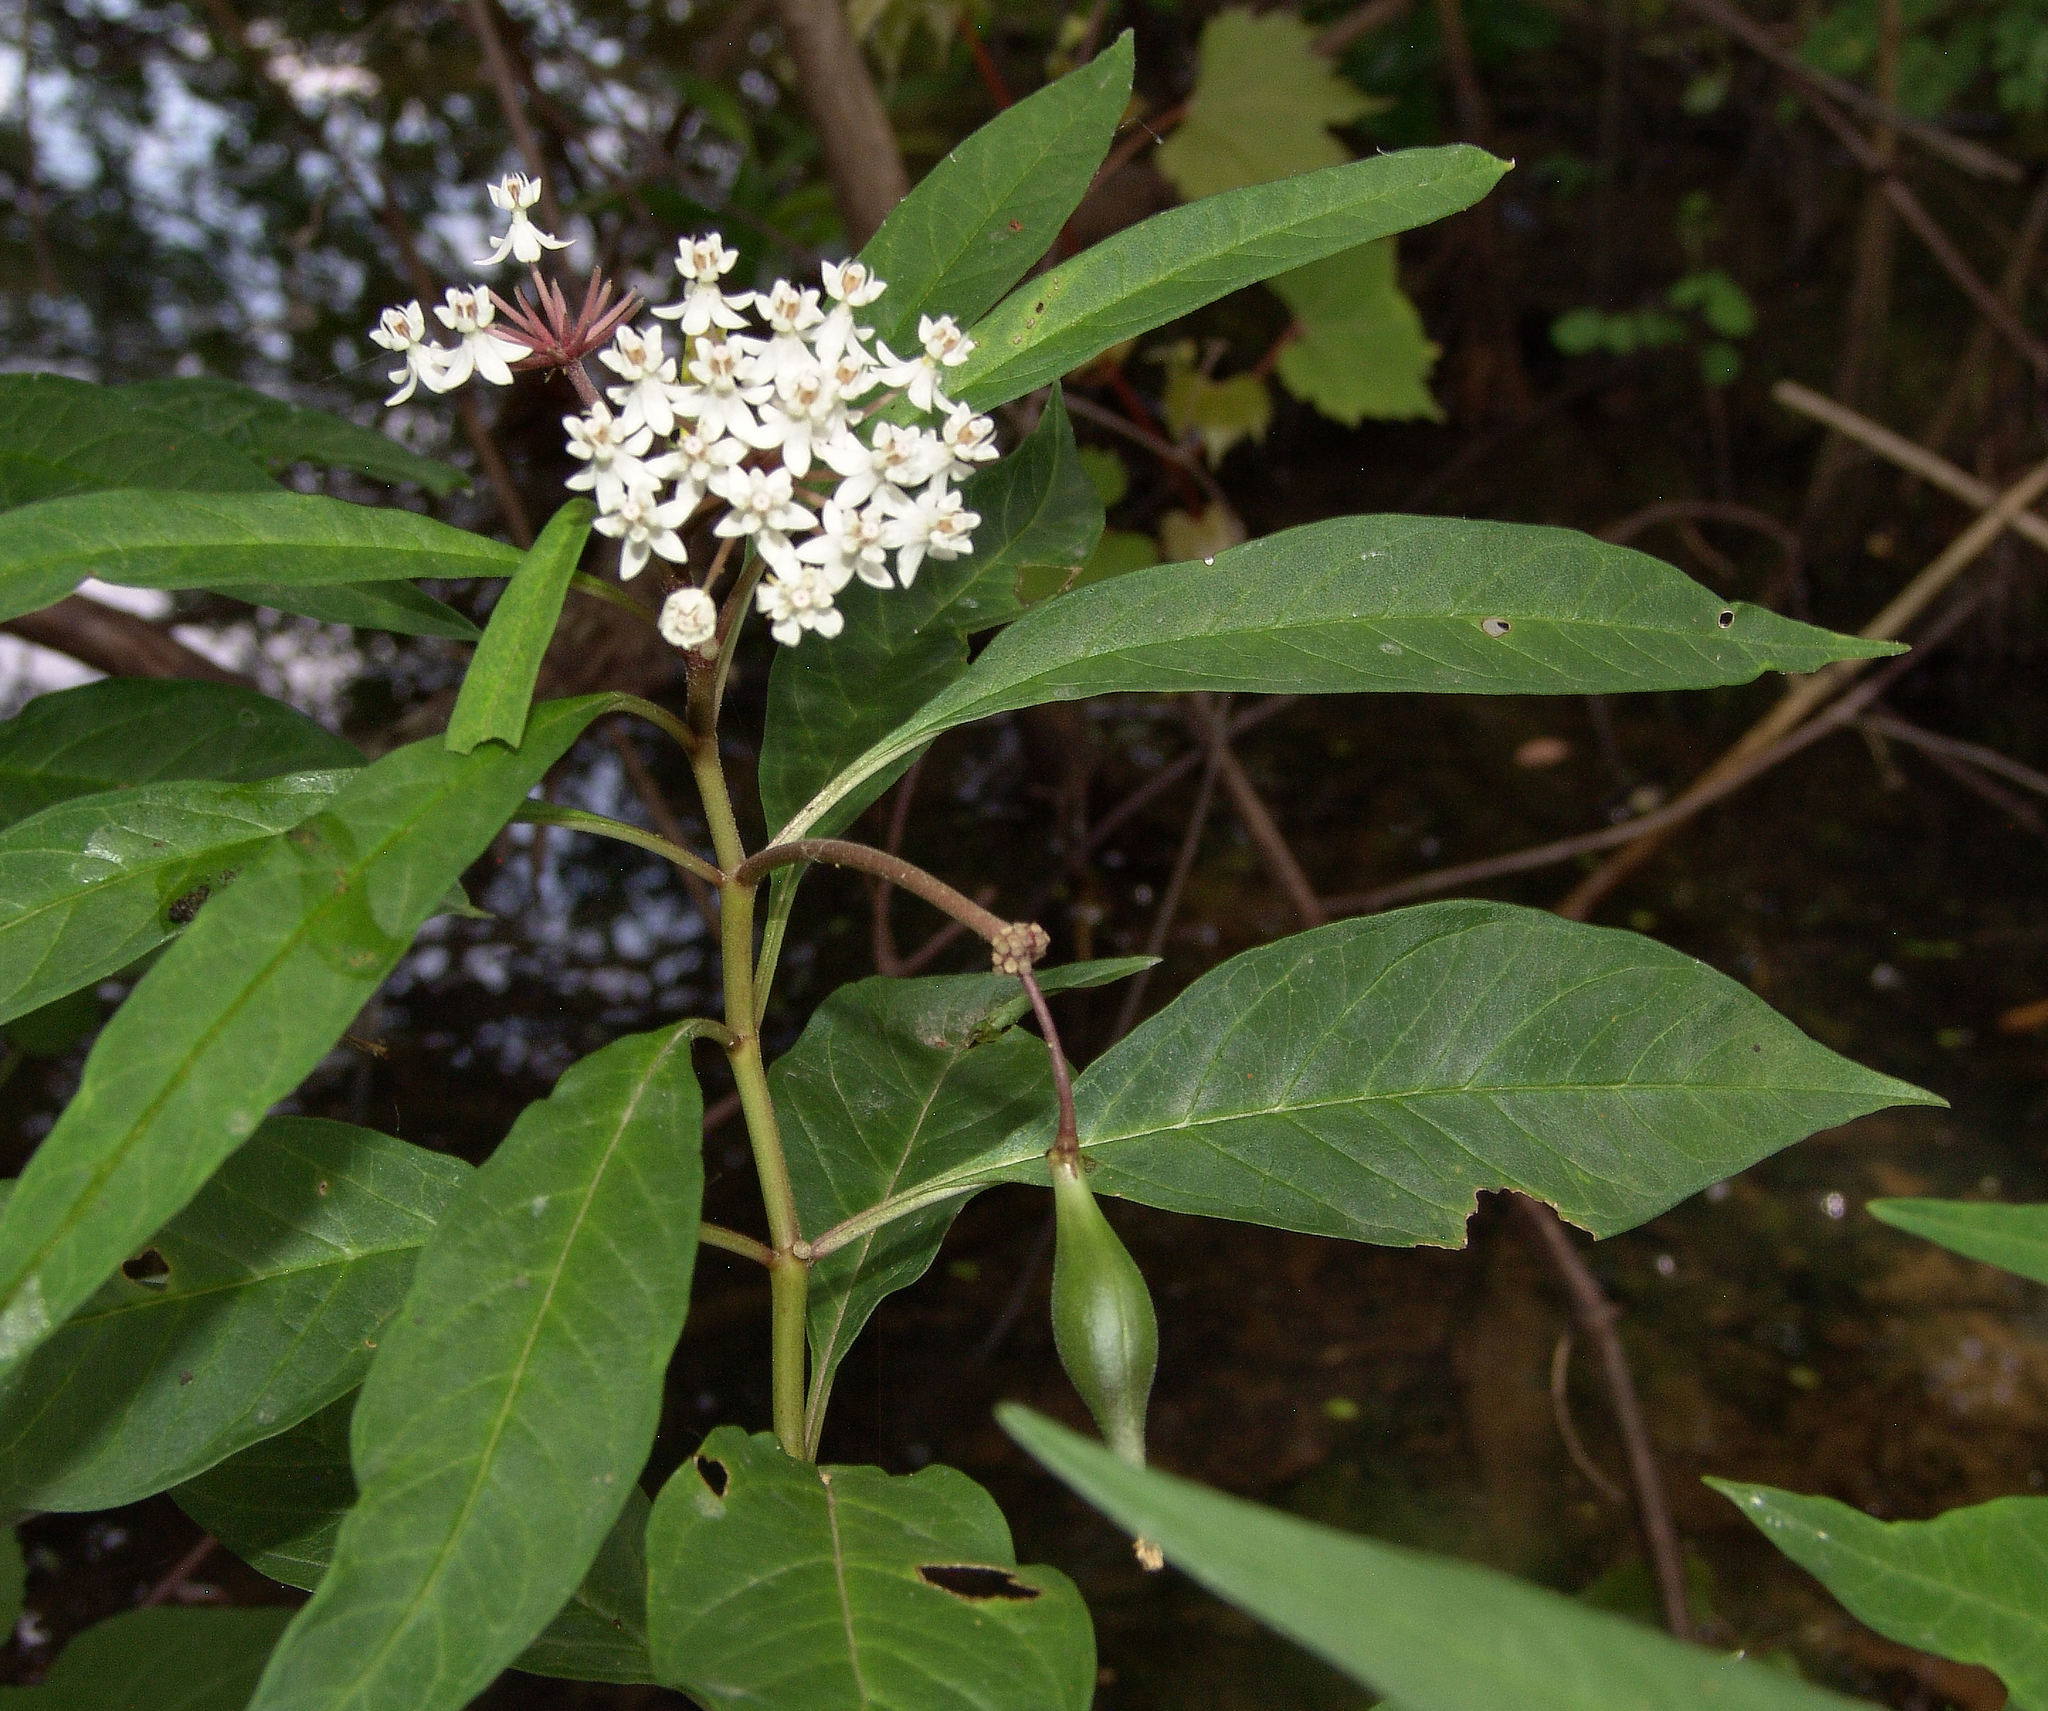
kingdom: Plantae
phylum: Tracheophyta
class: Magnoliopsida
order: Gentianales
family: Apocynaceae
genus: Asclepias
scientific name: Asclepias perennis
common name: Smooth-seed milkweed
